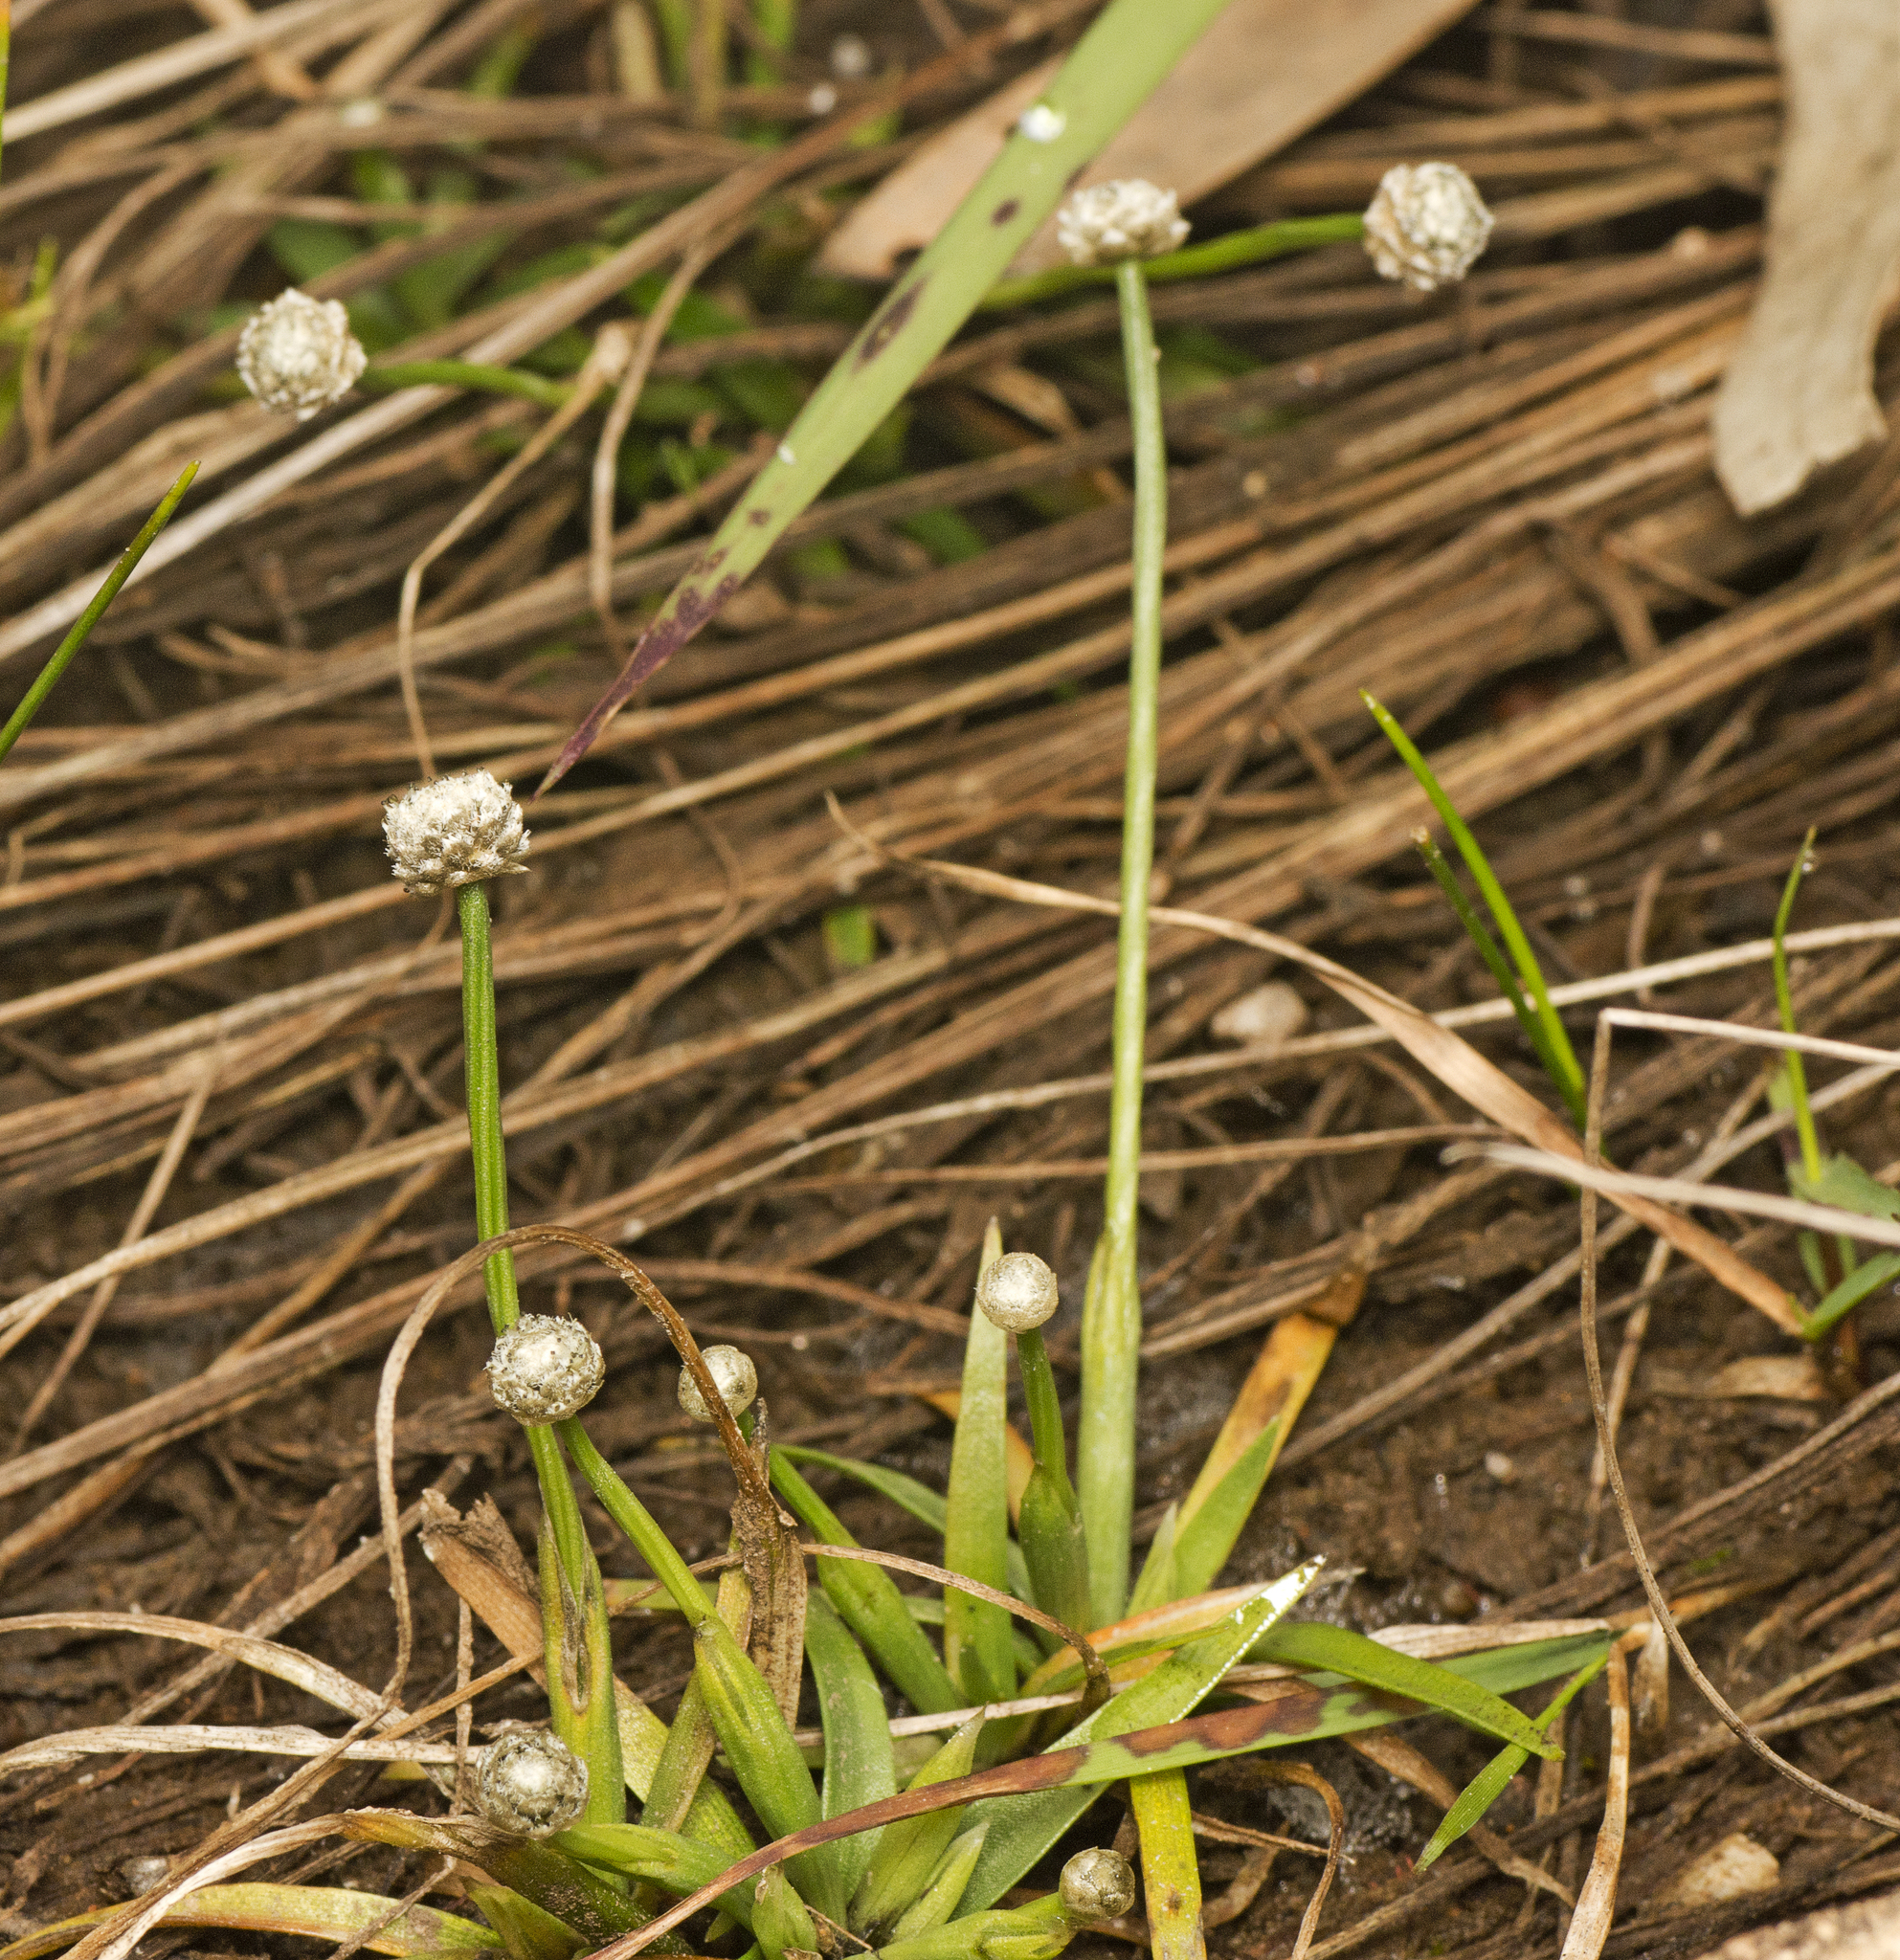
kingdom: Plantae
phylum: Tracheophyta
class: Liliopsida
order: Poales
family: Eriocaulaceae
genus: Eriocaulon
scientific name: Eriocaulon scariosum
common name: Rough pipewort
